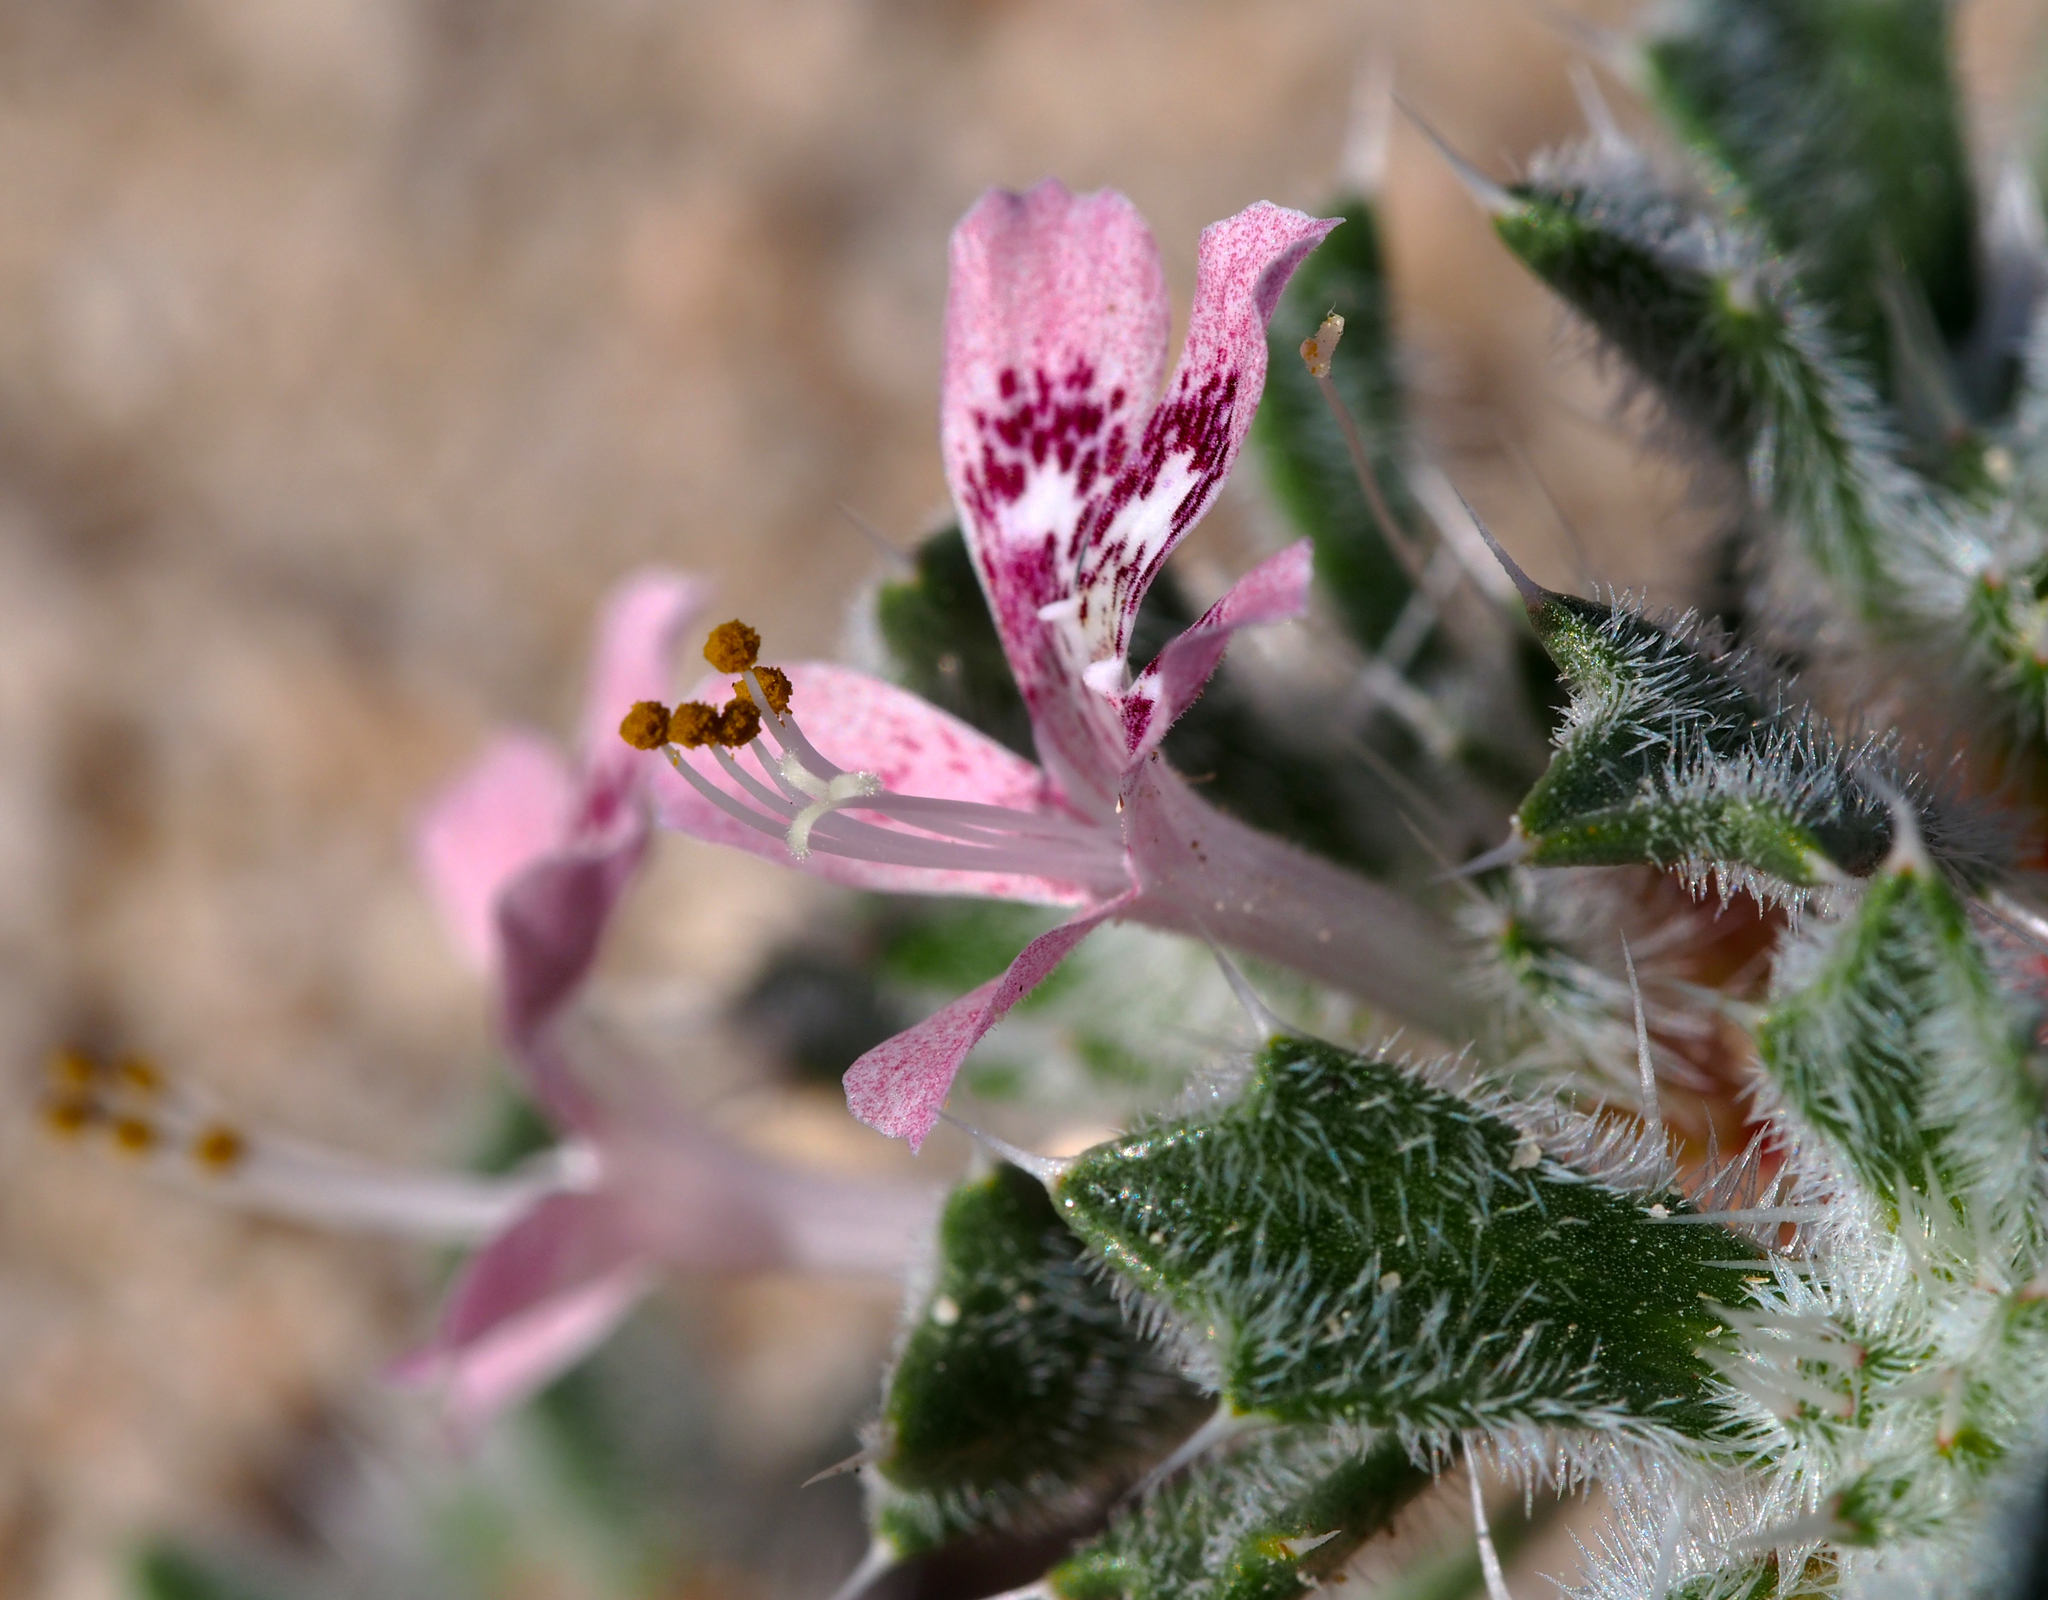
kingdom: Plantae
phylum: Tracheophyta
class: Magnoliopsida
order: Ericales
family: Polemoniaceae
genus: Loeseliastrum
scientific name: Loeseliastrum matthewsii
